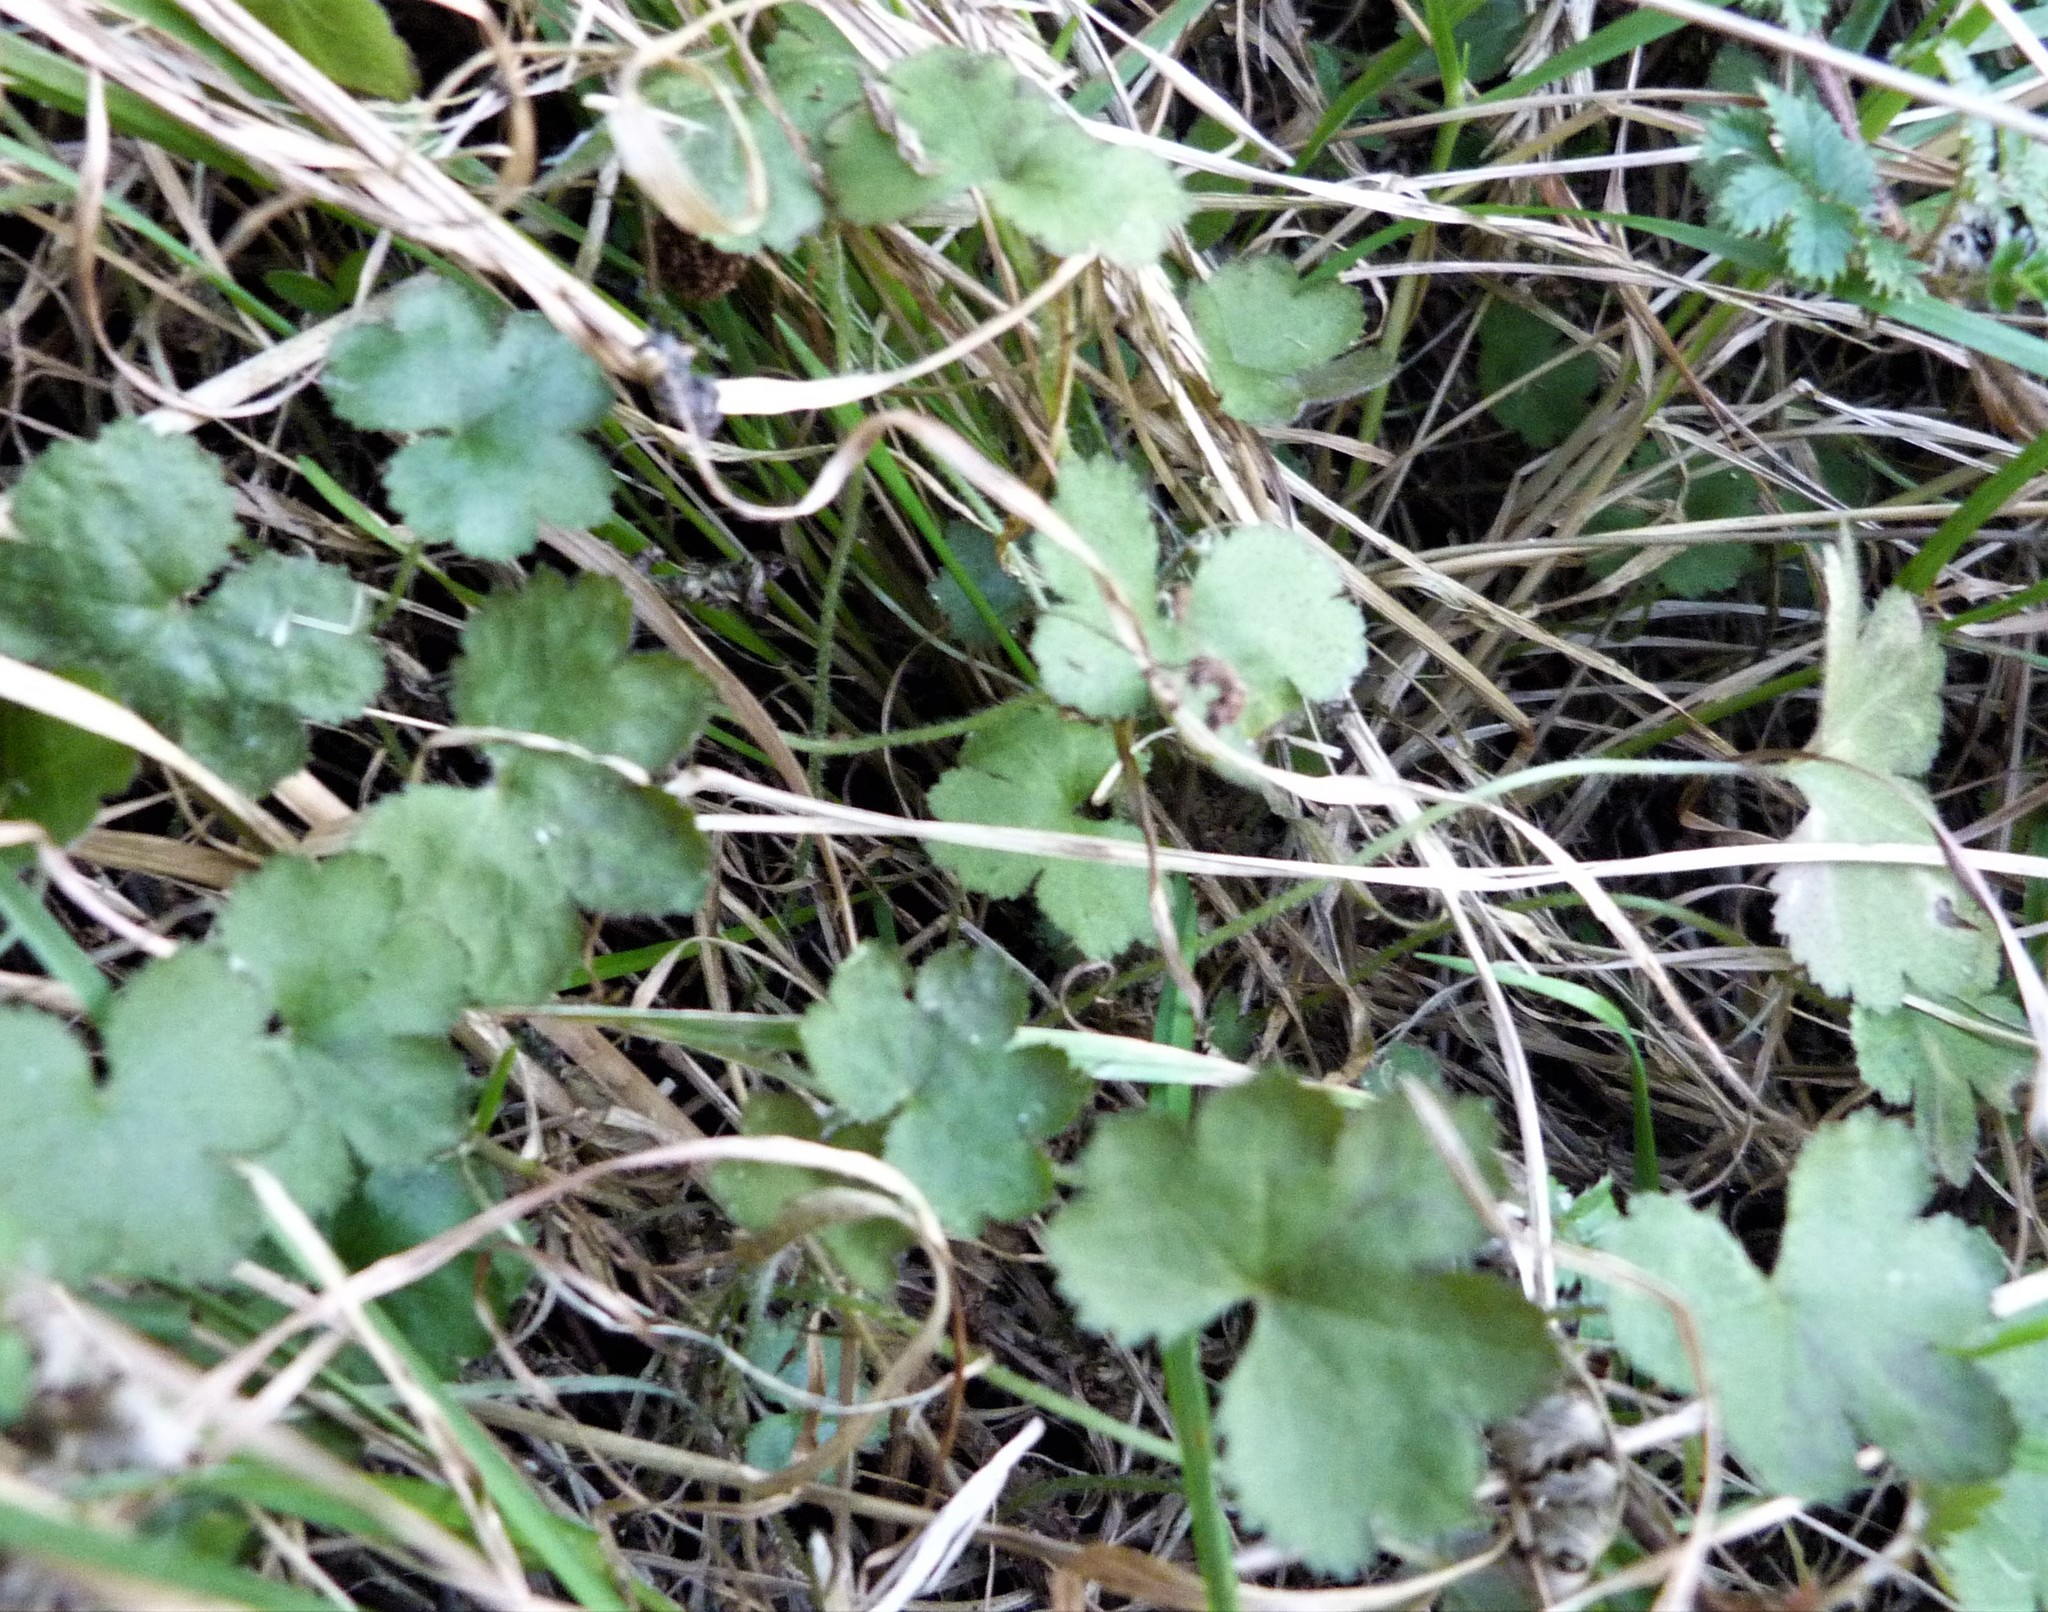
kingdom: Plantae
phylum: Tracheophyta
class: Magnoliopsida
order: Apiales
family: Araliaceae
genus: Hydrocotyle
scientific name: Hydrocotyle moschata
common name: Hairy pennywort
